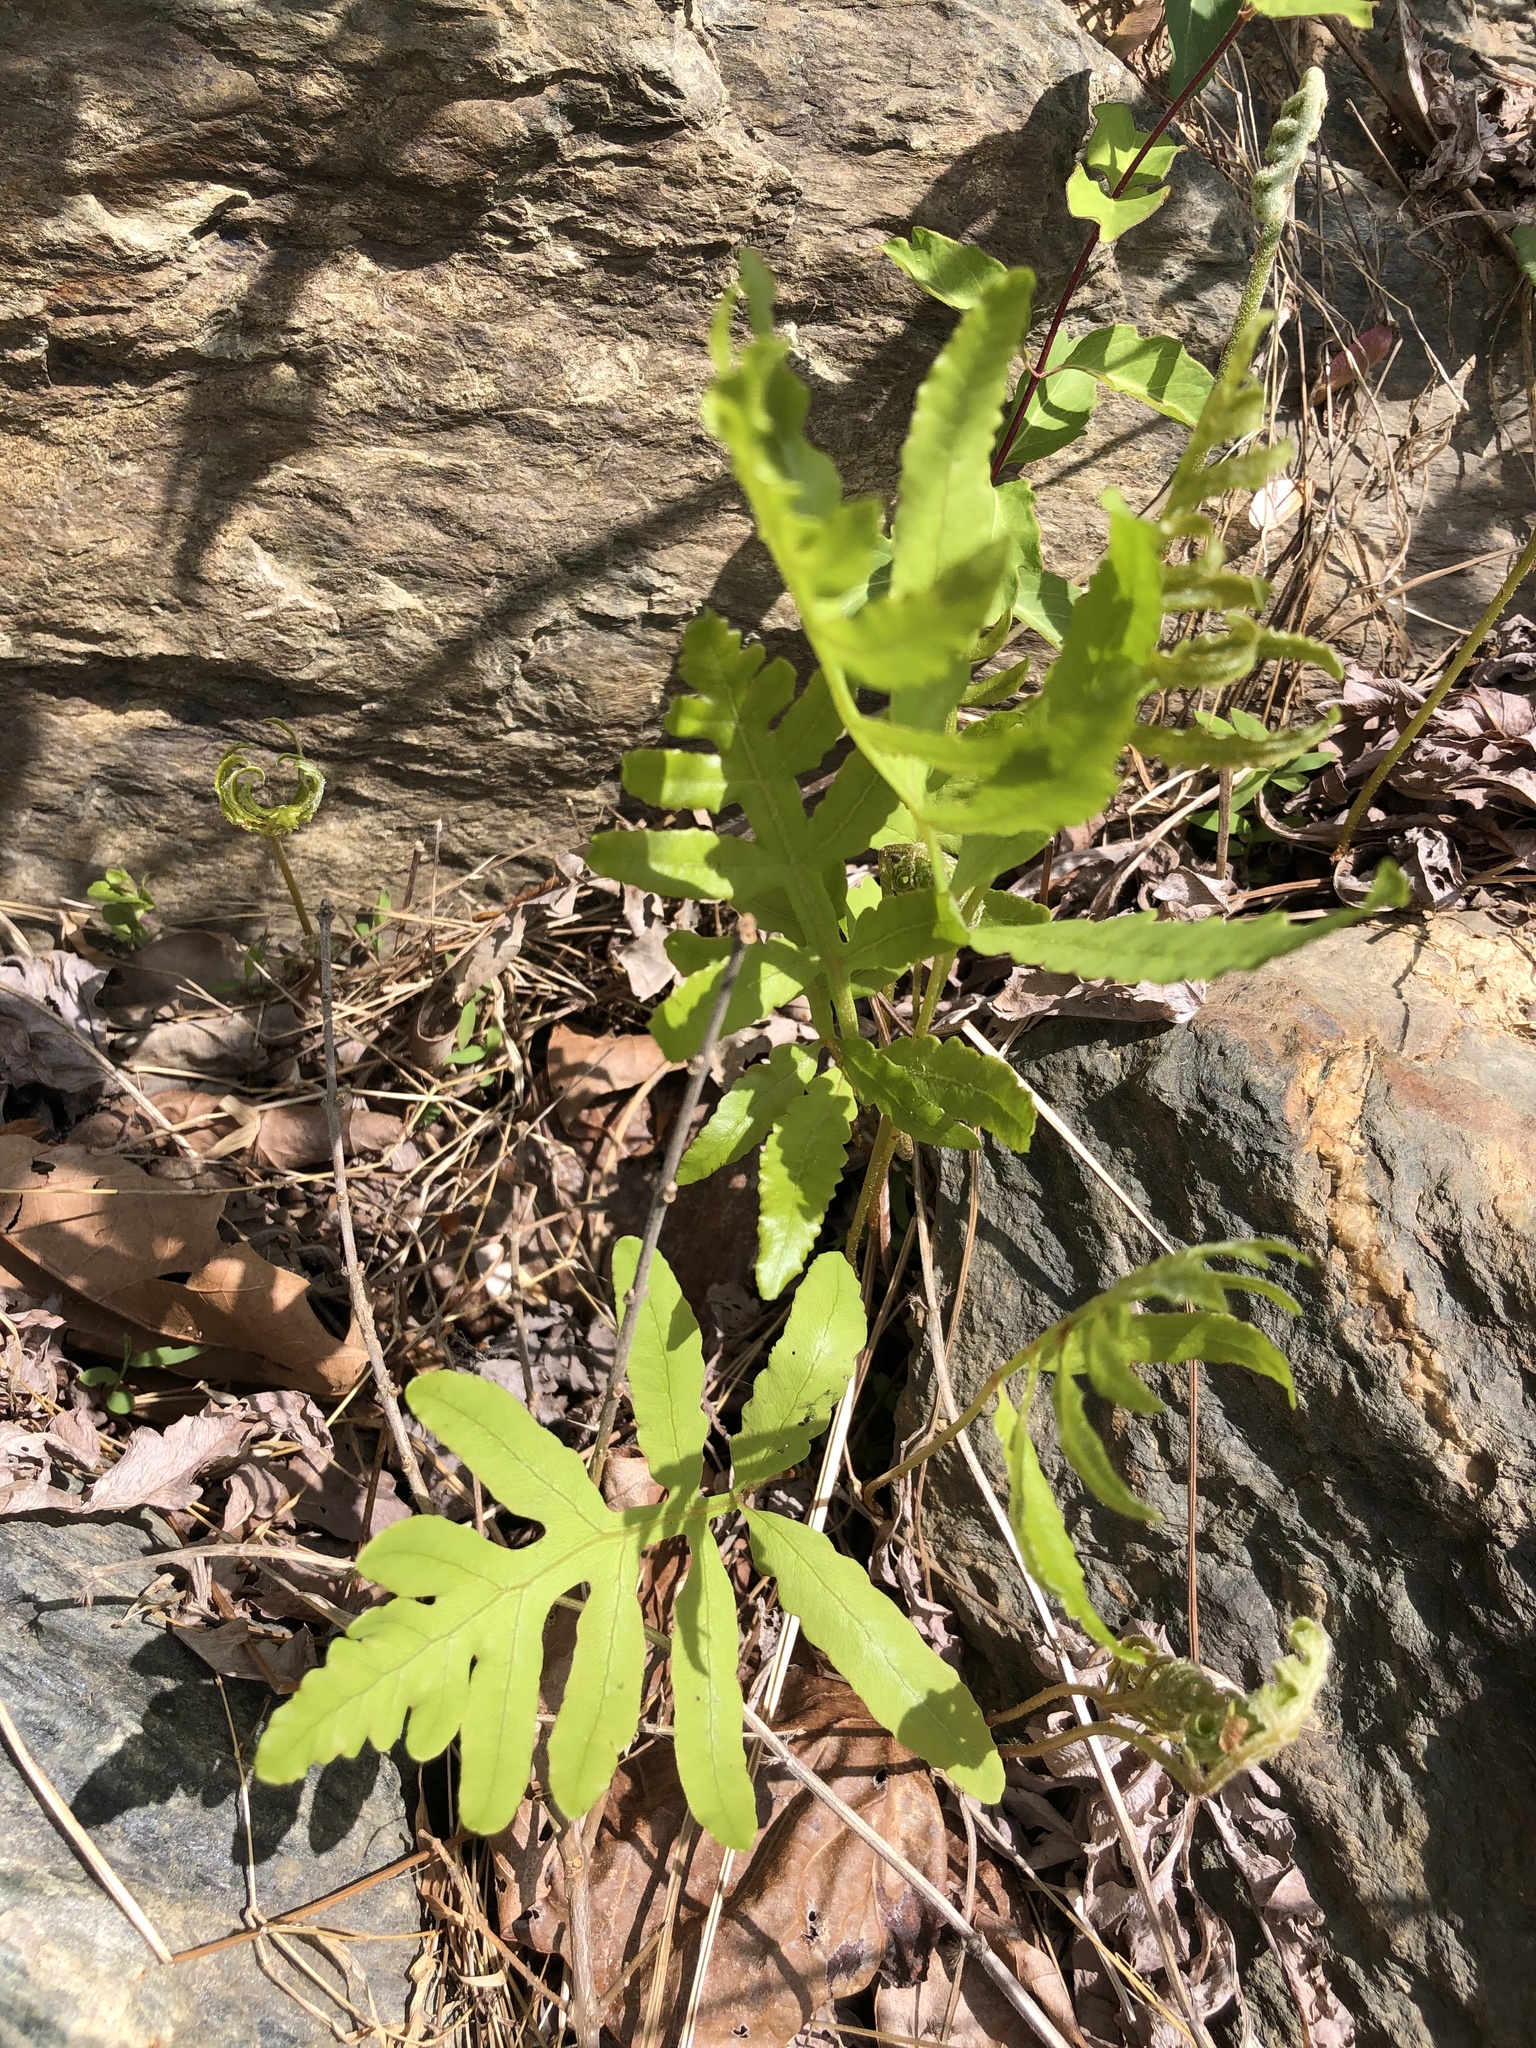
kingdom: Plantae
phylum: Tracheophyta
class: Polypodiopsida
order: Polypodiales
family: Onocleaceae
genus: Onoclea
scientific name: Onoclea sensibilis
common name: Sensitive fern
